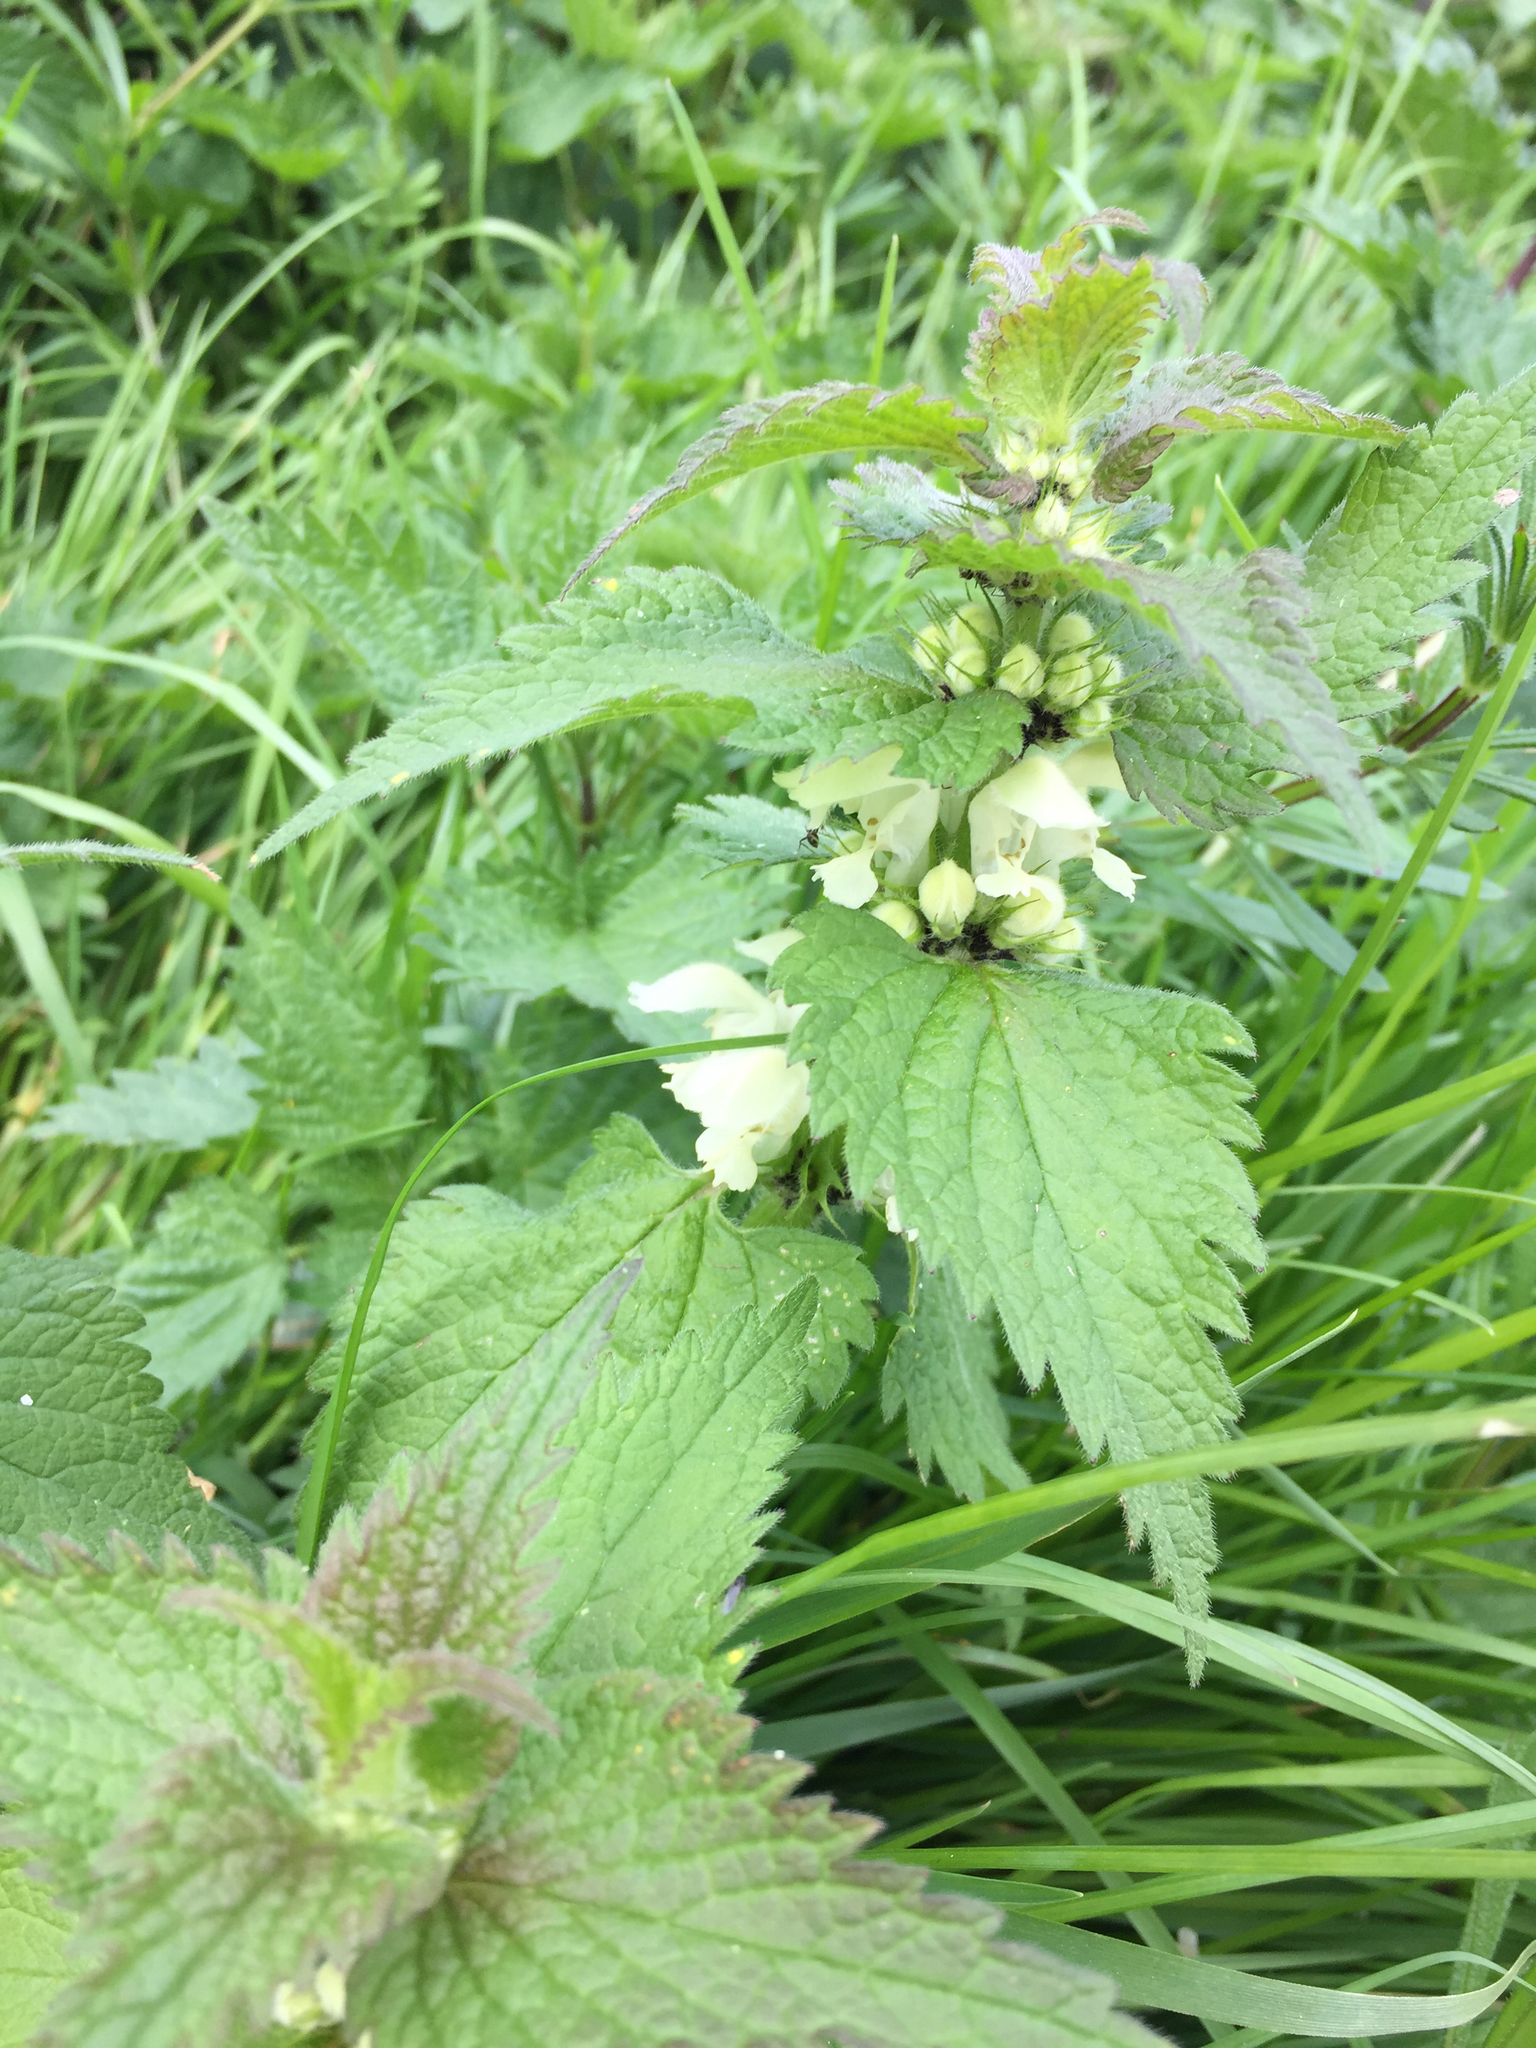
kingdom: Plantae
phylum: Tracheophyta
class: Magnoliopsida
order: Lamiales
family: Lamiaceae
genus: Lamium
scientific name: Lamium album
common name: White dead-nettle
